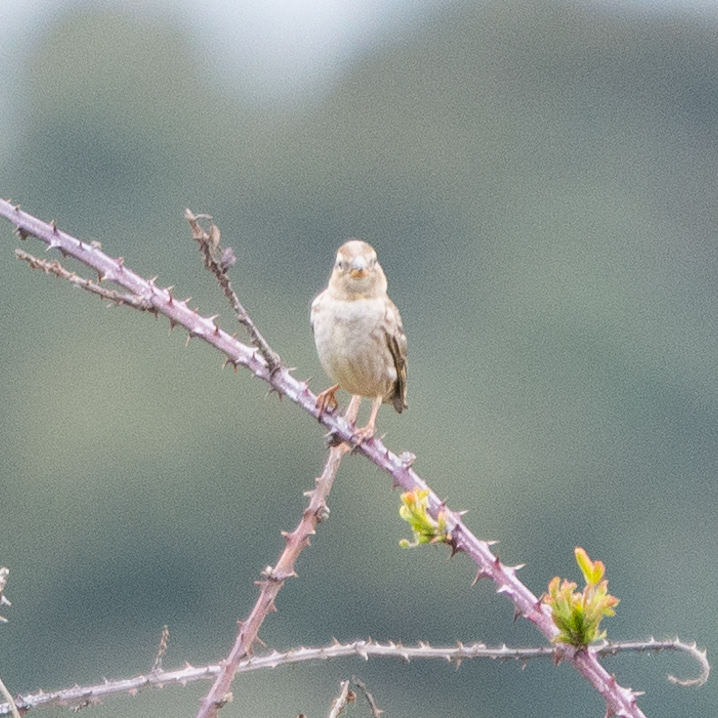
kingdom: Animalia
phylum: Chordata
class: Aves
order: Passeriformes
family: Passeridae
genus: Petronia
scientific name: Petronia petronia
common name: Rock sparrow
